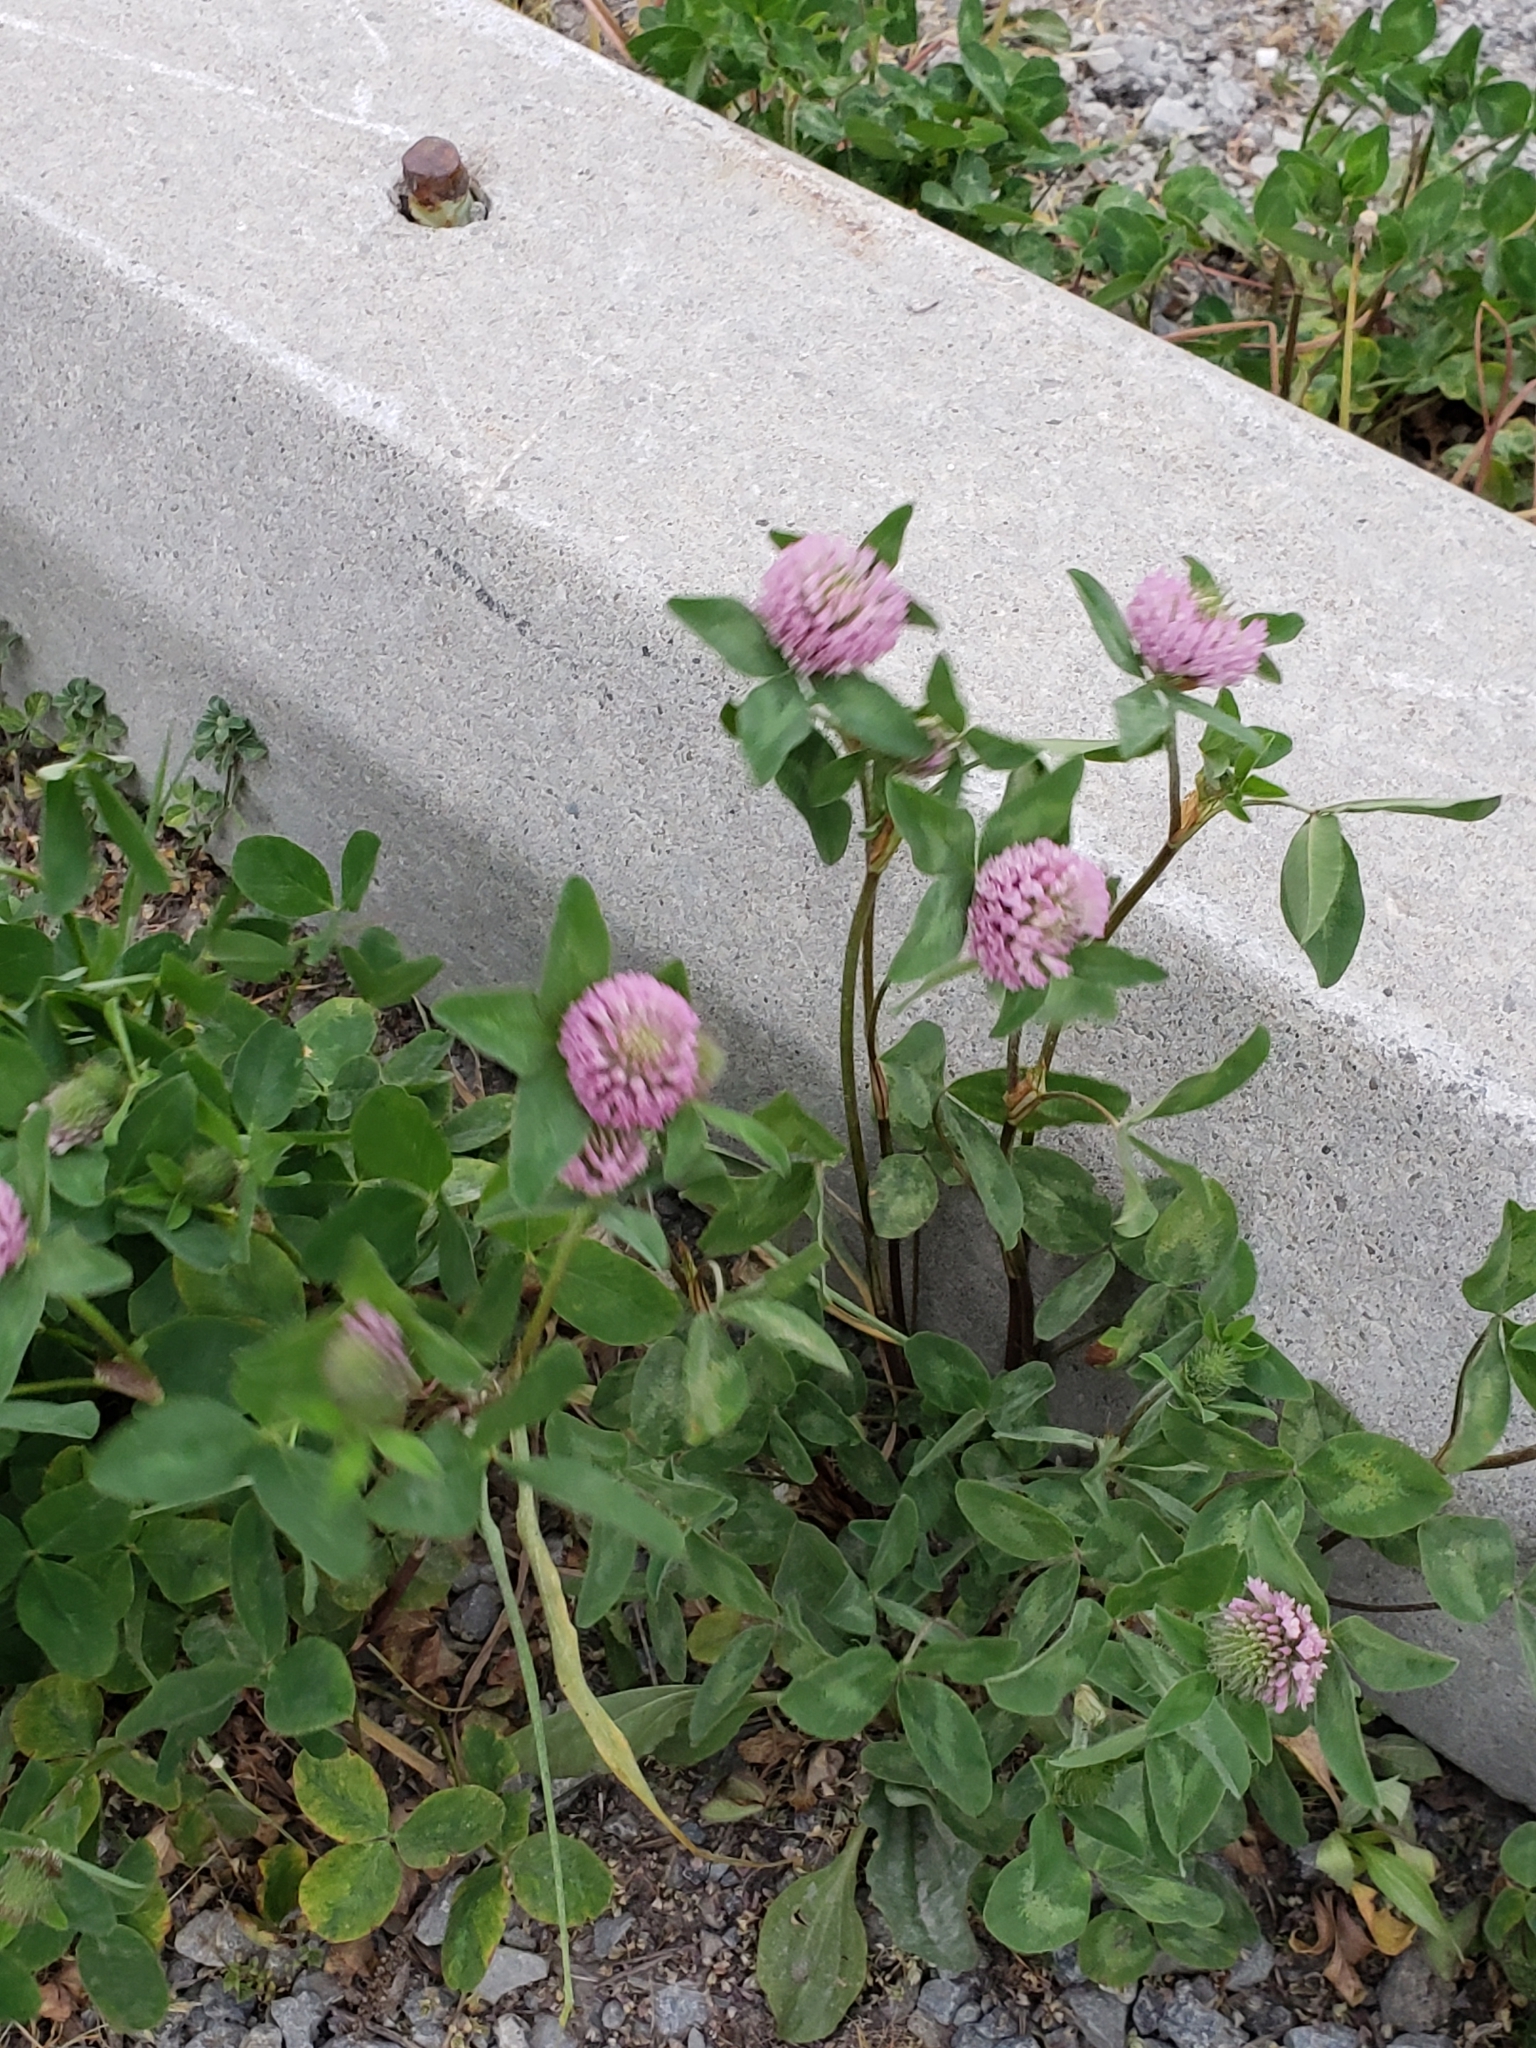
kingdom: Plantae
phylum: Tracheophyta
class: Magnoliopsida
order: Fabales
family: Fabaceae
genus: Trifolium
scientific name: Trifolium pratense
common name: Red clover
